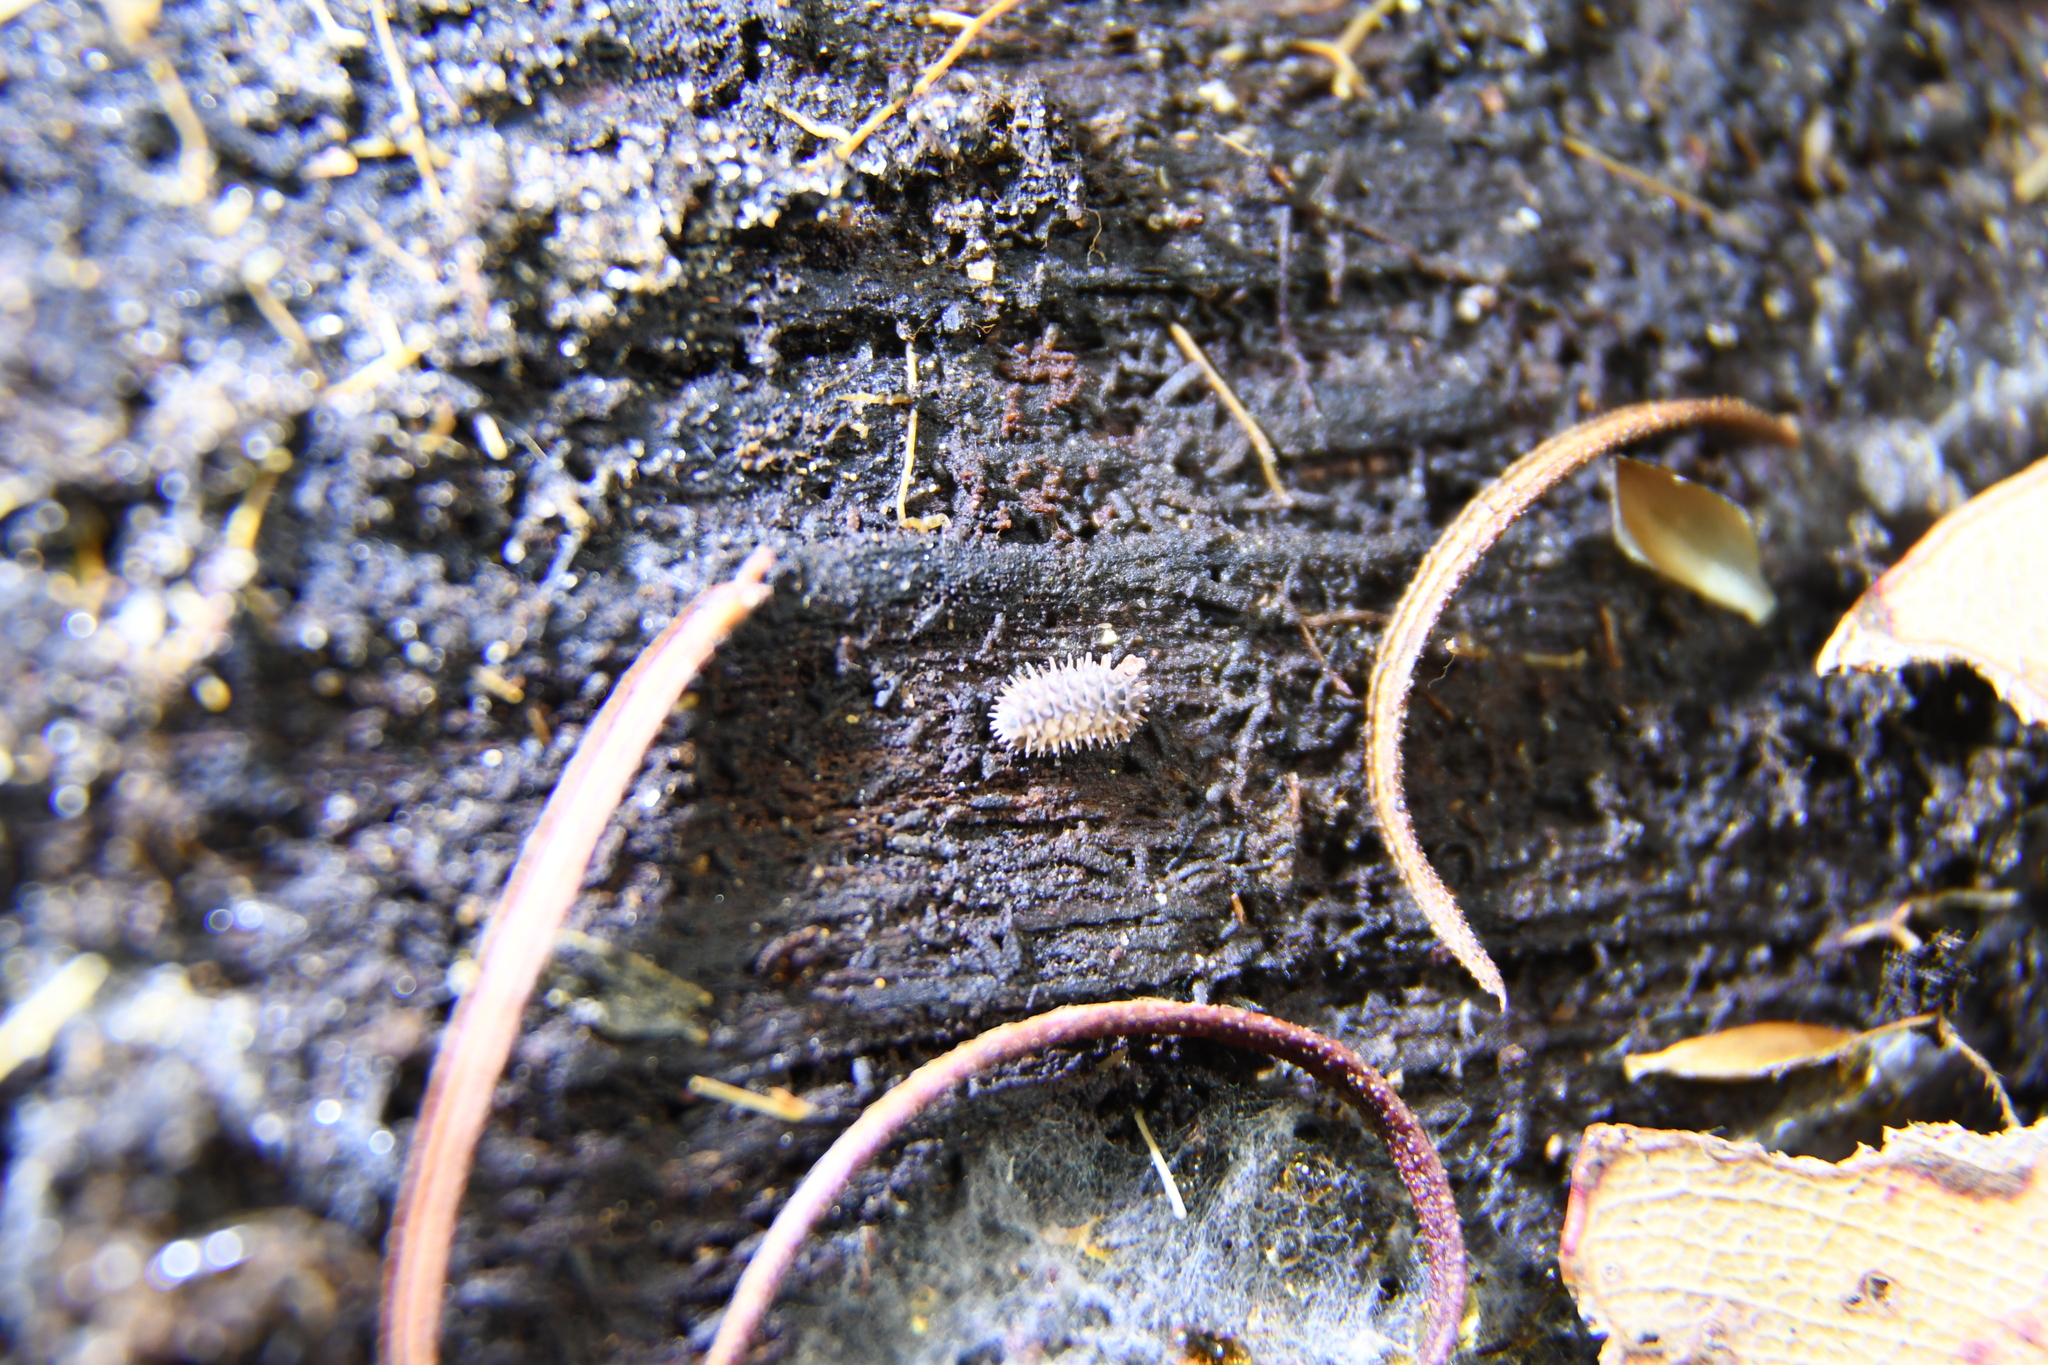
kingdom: Animalia
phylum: Arthropoda
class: Malacostraca
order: Isopoda
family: Armadillidae
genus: Pseudolaureola
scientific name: Pseudolaureola wilsmorei
